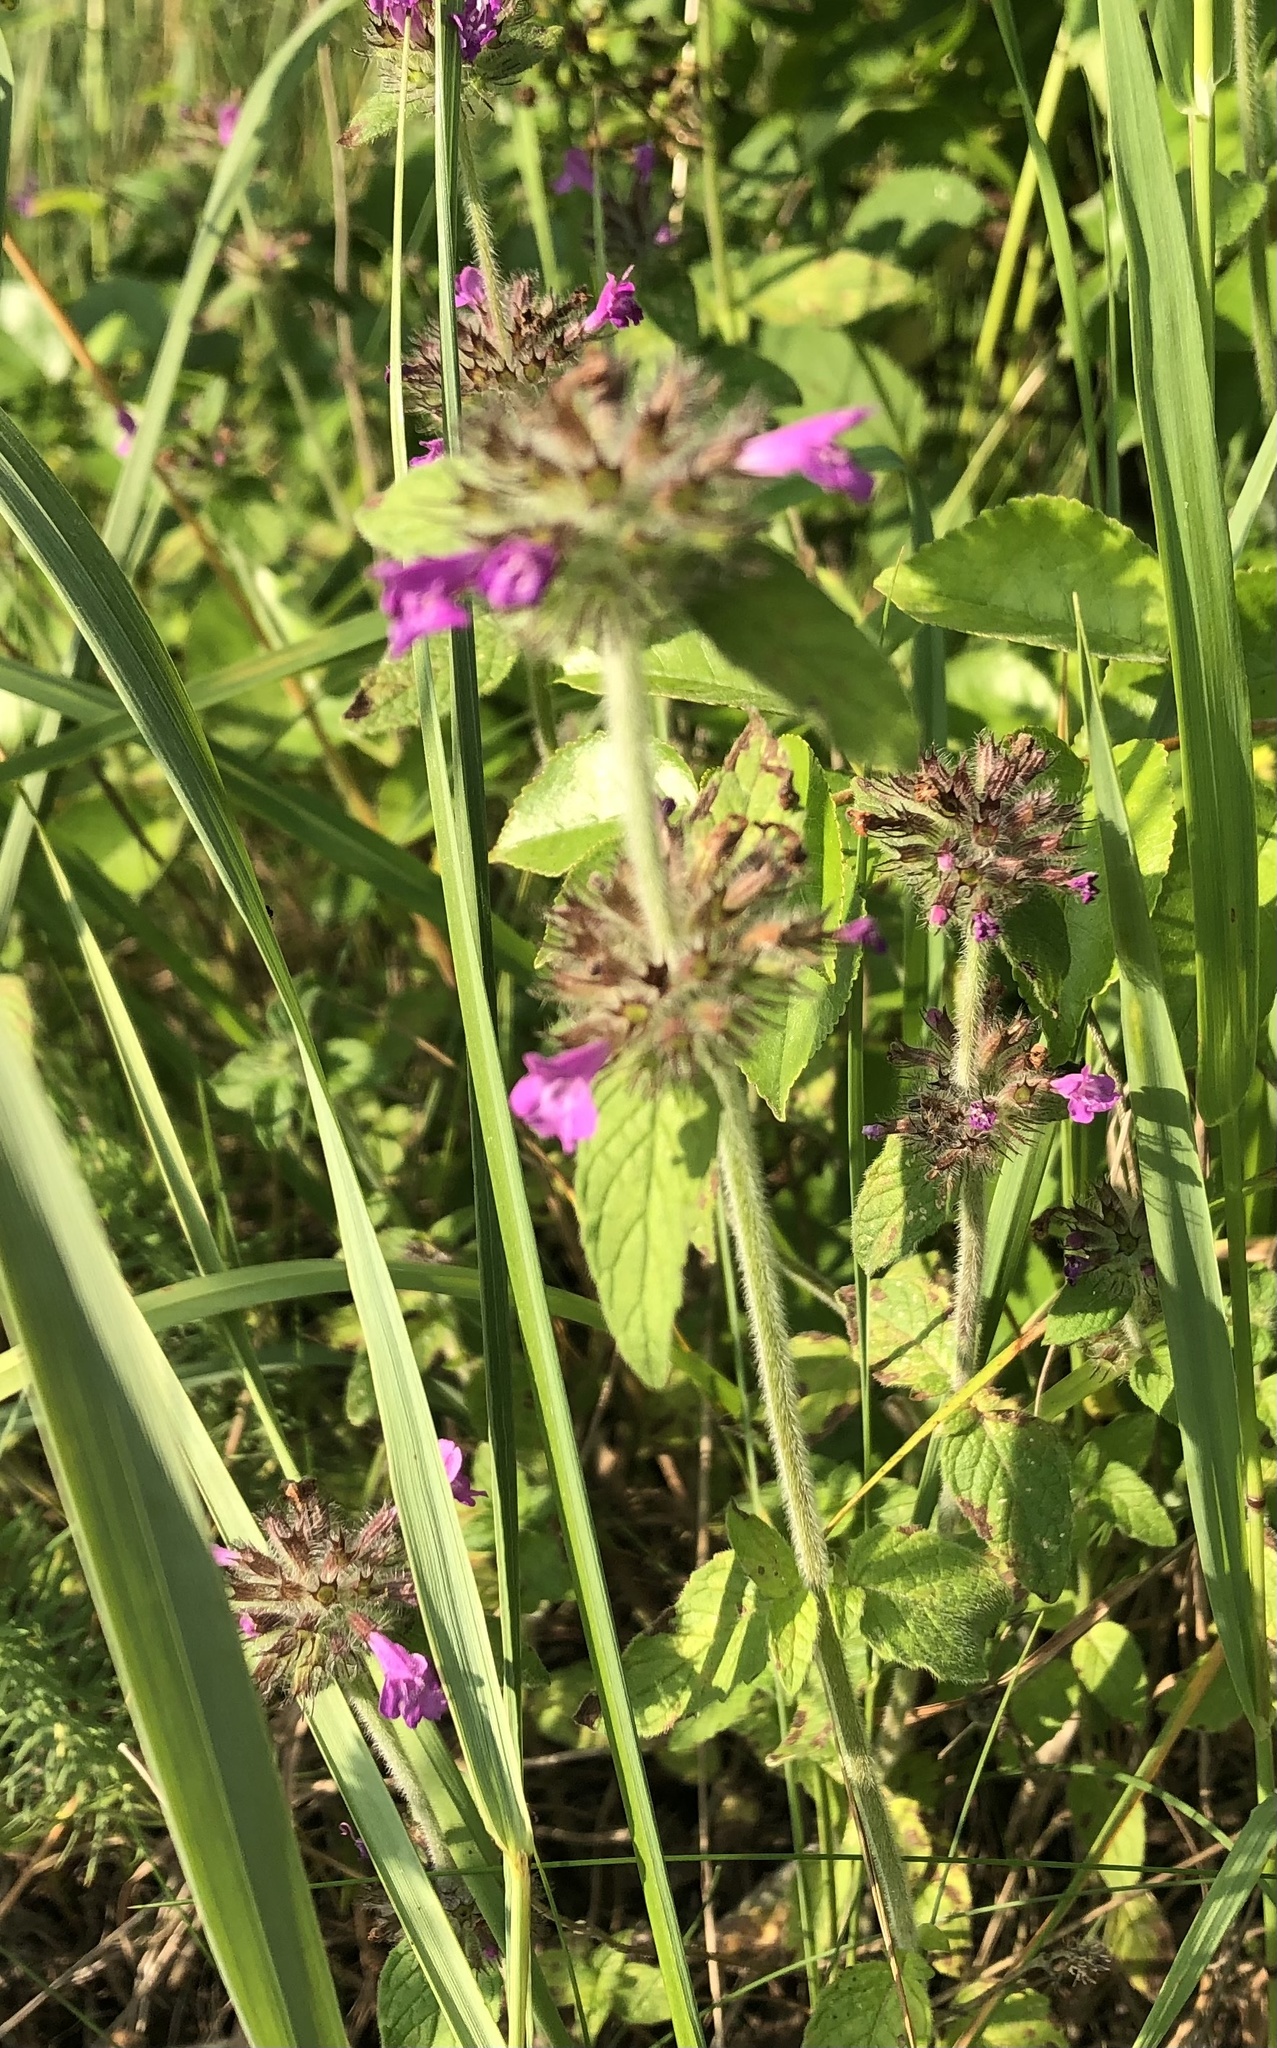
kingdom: Plantae
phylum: Tracheophyta
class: Magnoliopsida
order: Lamiales
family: Lamiaceae
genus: Clinopodium
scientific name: Clinopodium vulgare
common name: Wild basil
